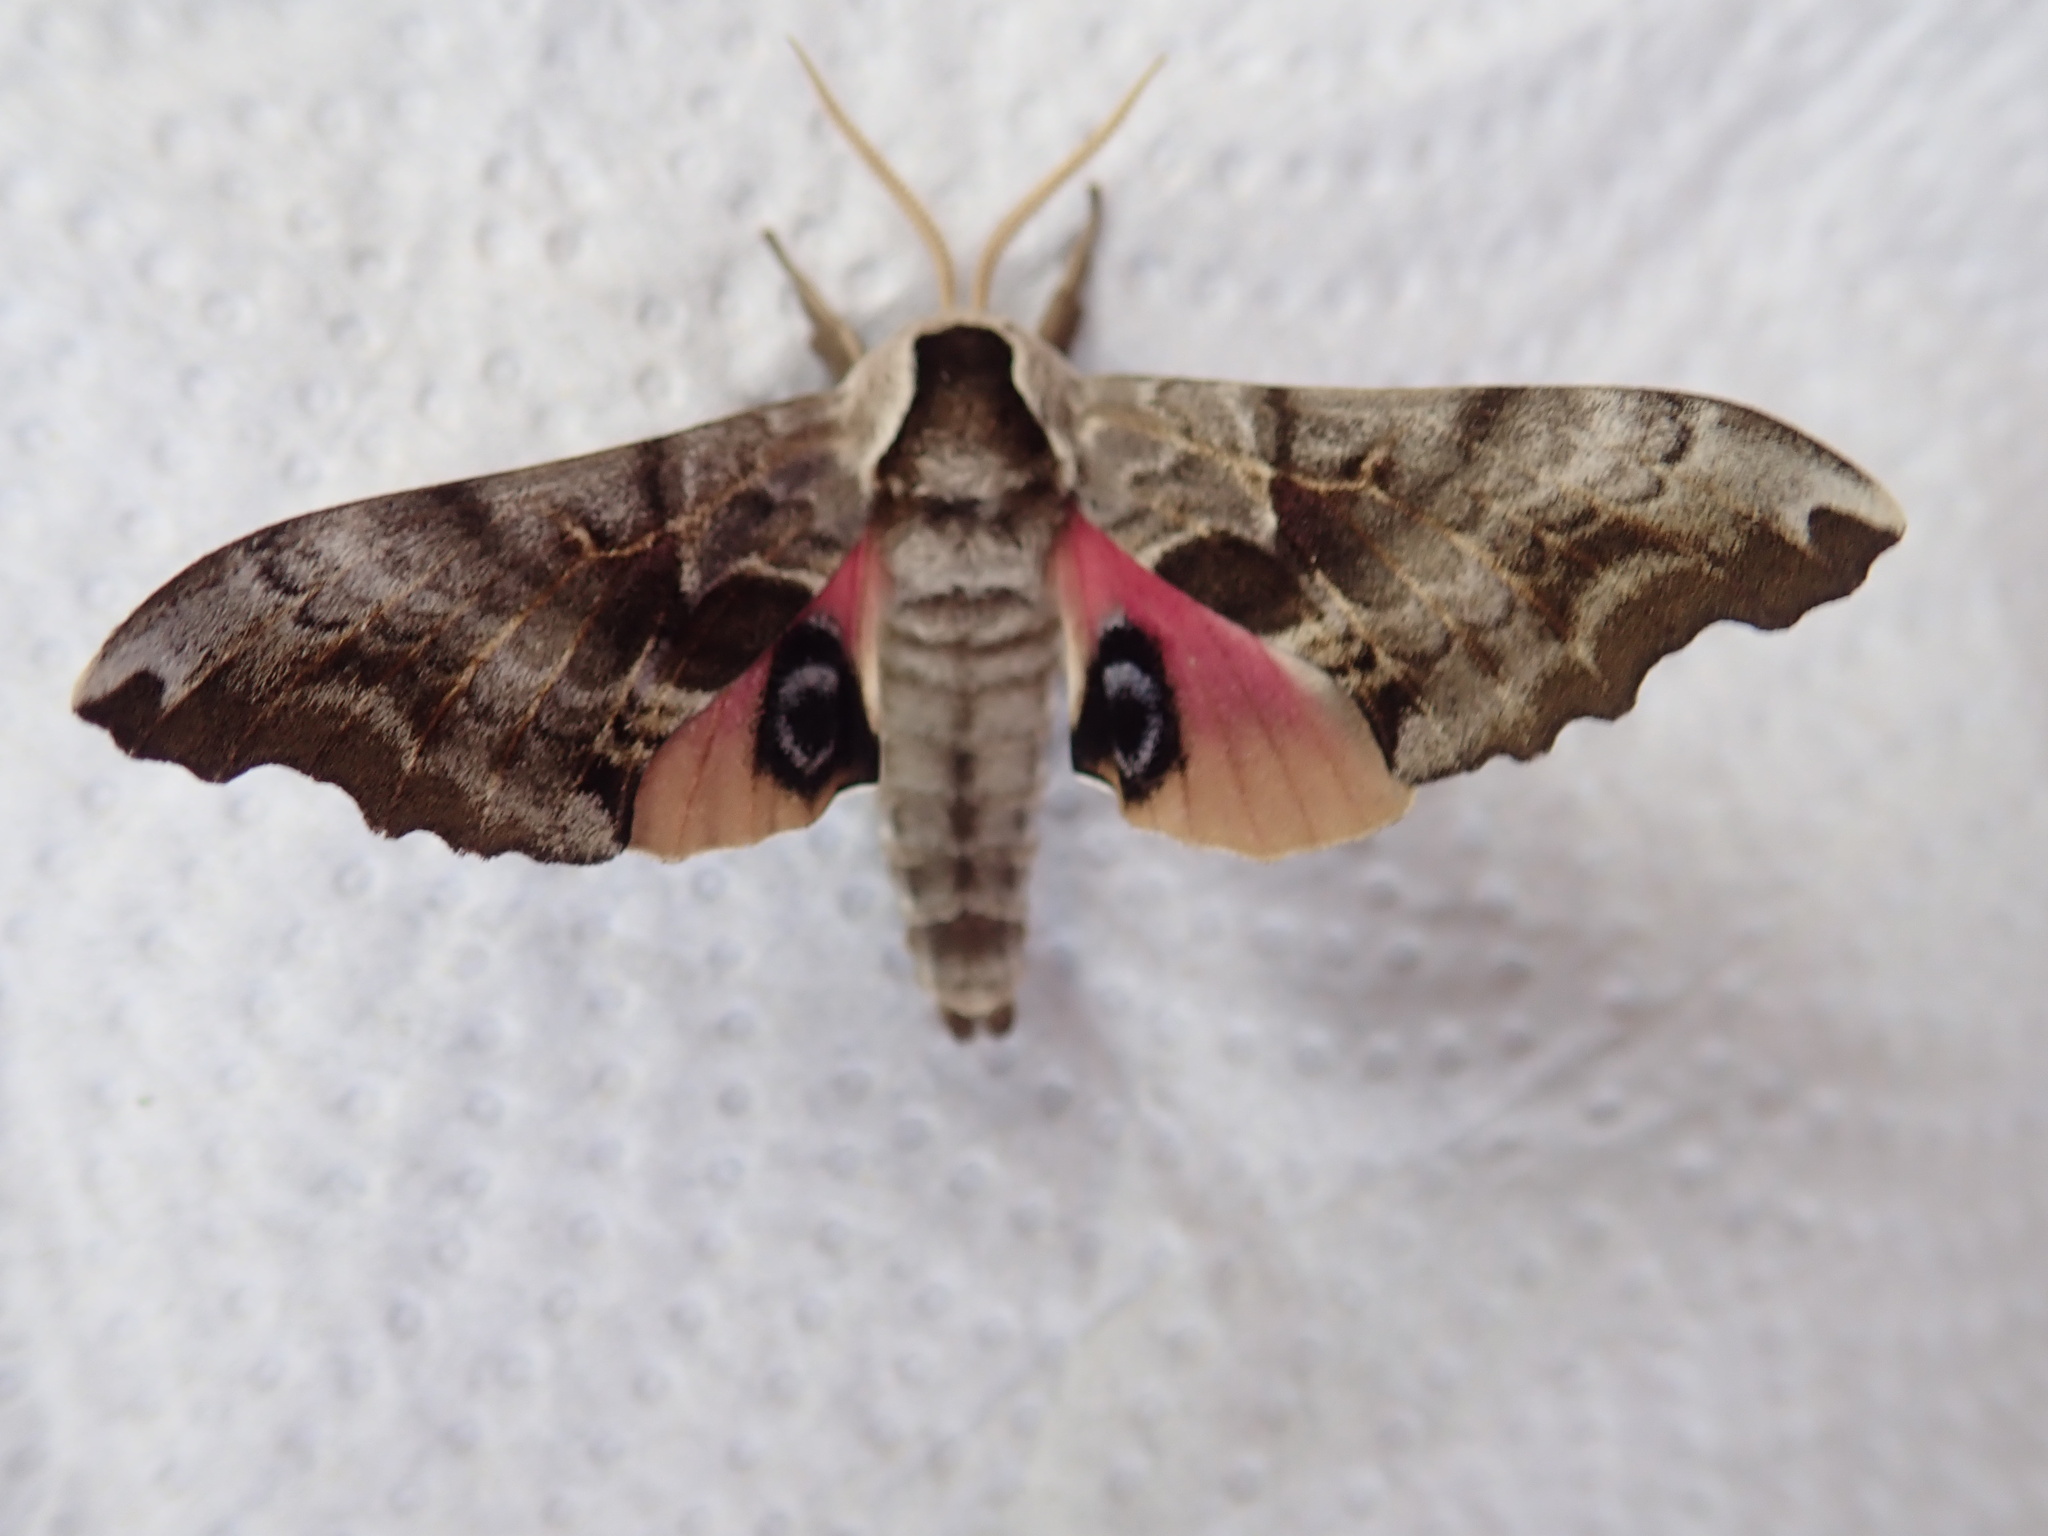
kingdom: Animalia
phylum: Arthropoda
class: Insecta
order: Lepidoptera
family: Sphingidae
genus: Smerinthus
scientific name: Smerinthus cerisyi
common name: Cerisy's sphinx moth
